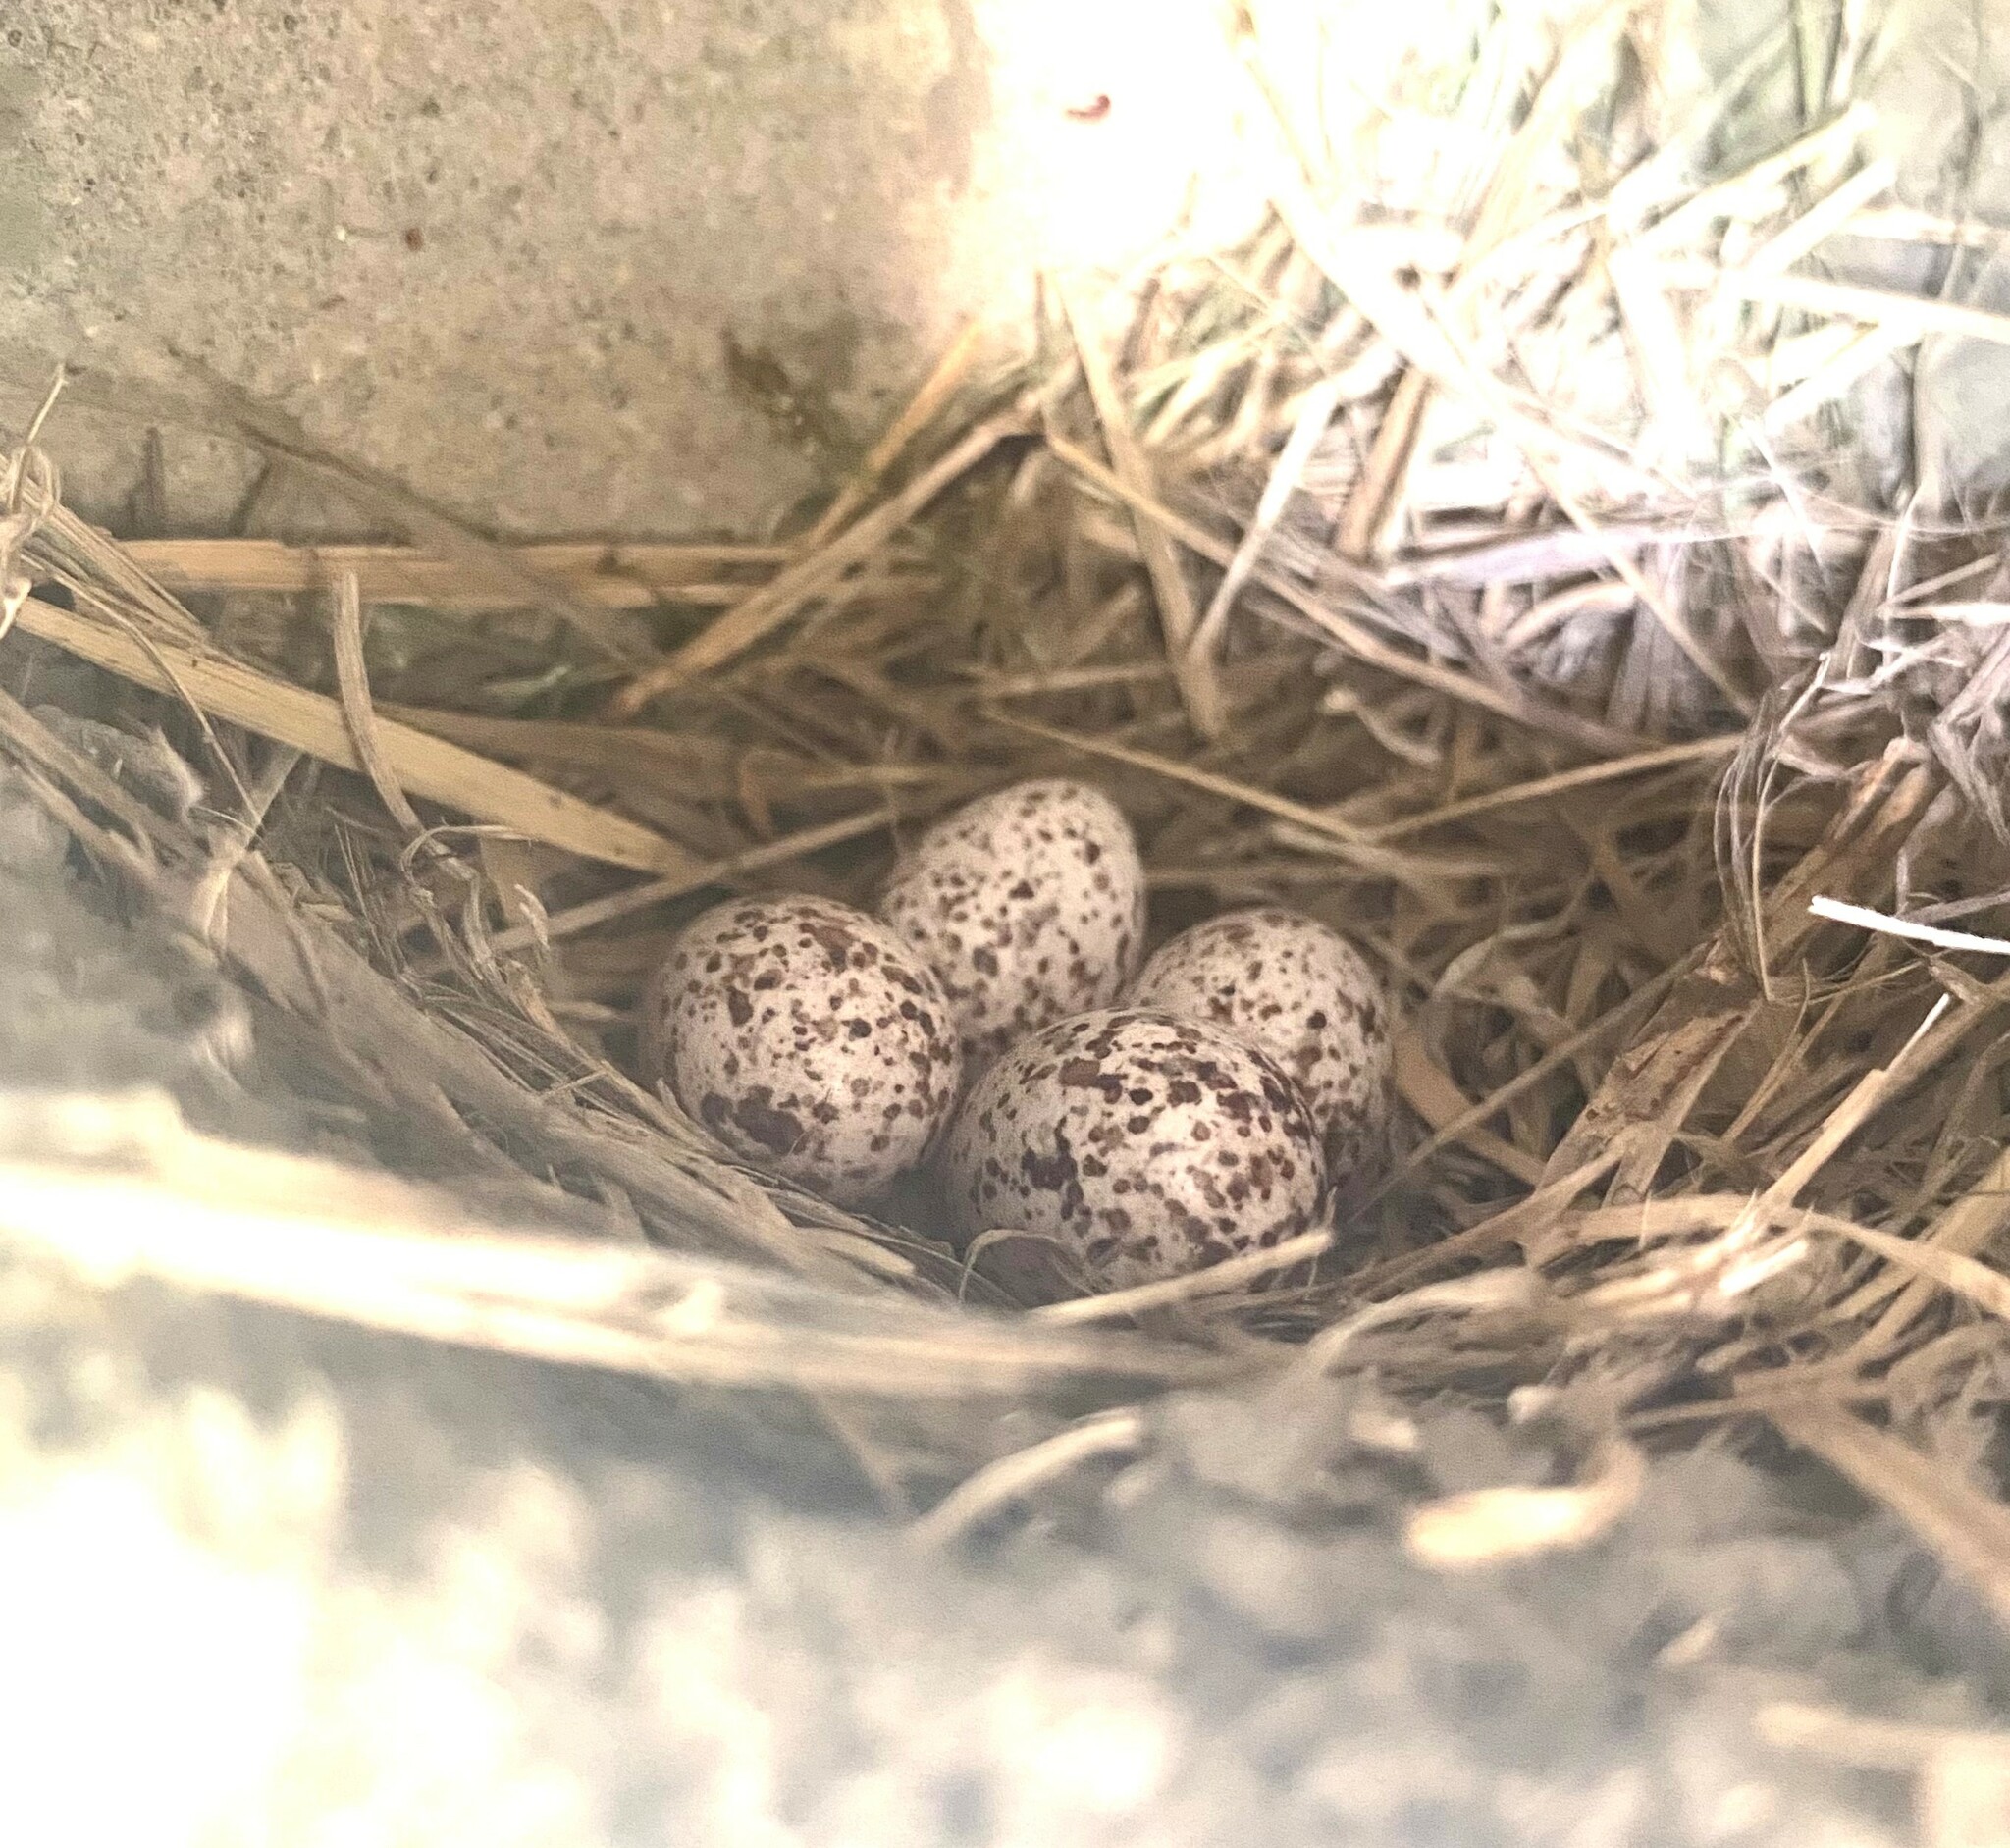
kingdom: Animalia
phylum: Chordata
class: Aves
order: Passeriformes
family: Hirundinidae
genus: Petrochelidon
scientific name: Petrochelidon pyrrhonota
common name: American cliff swallow
